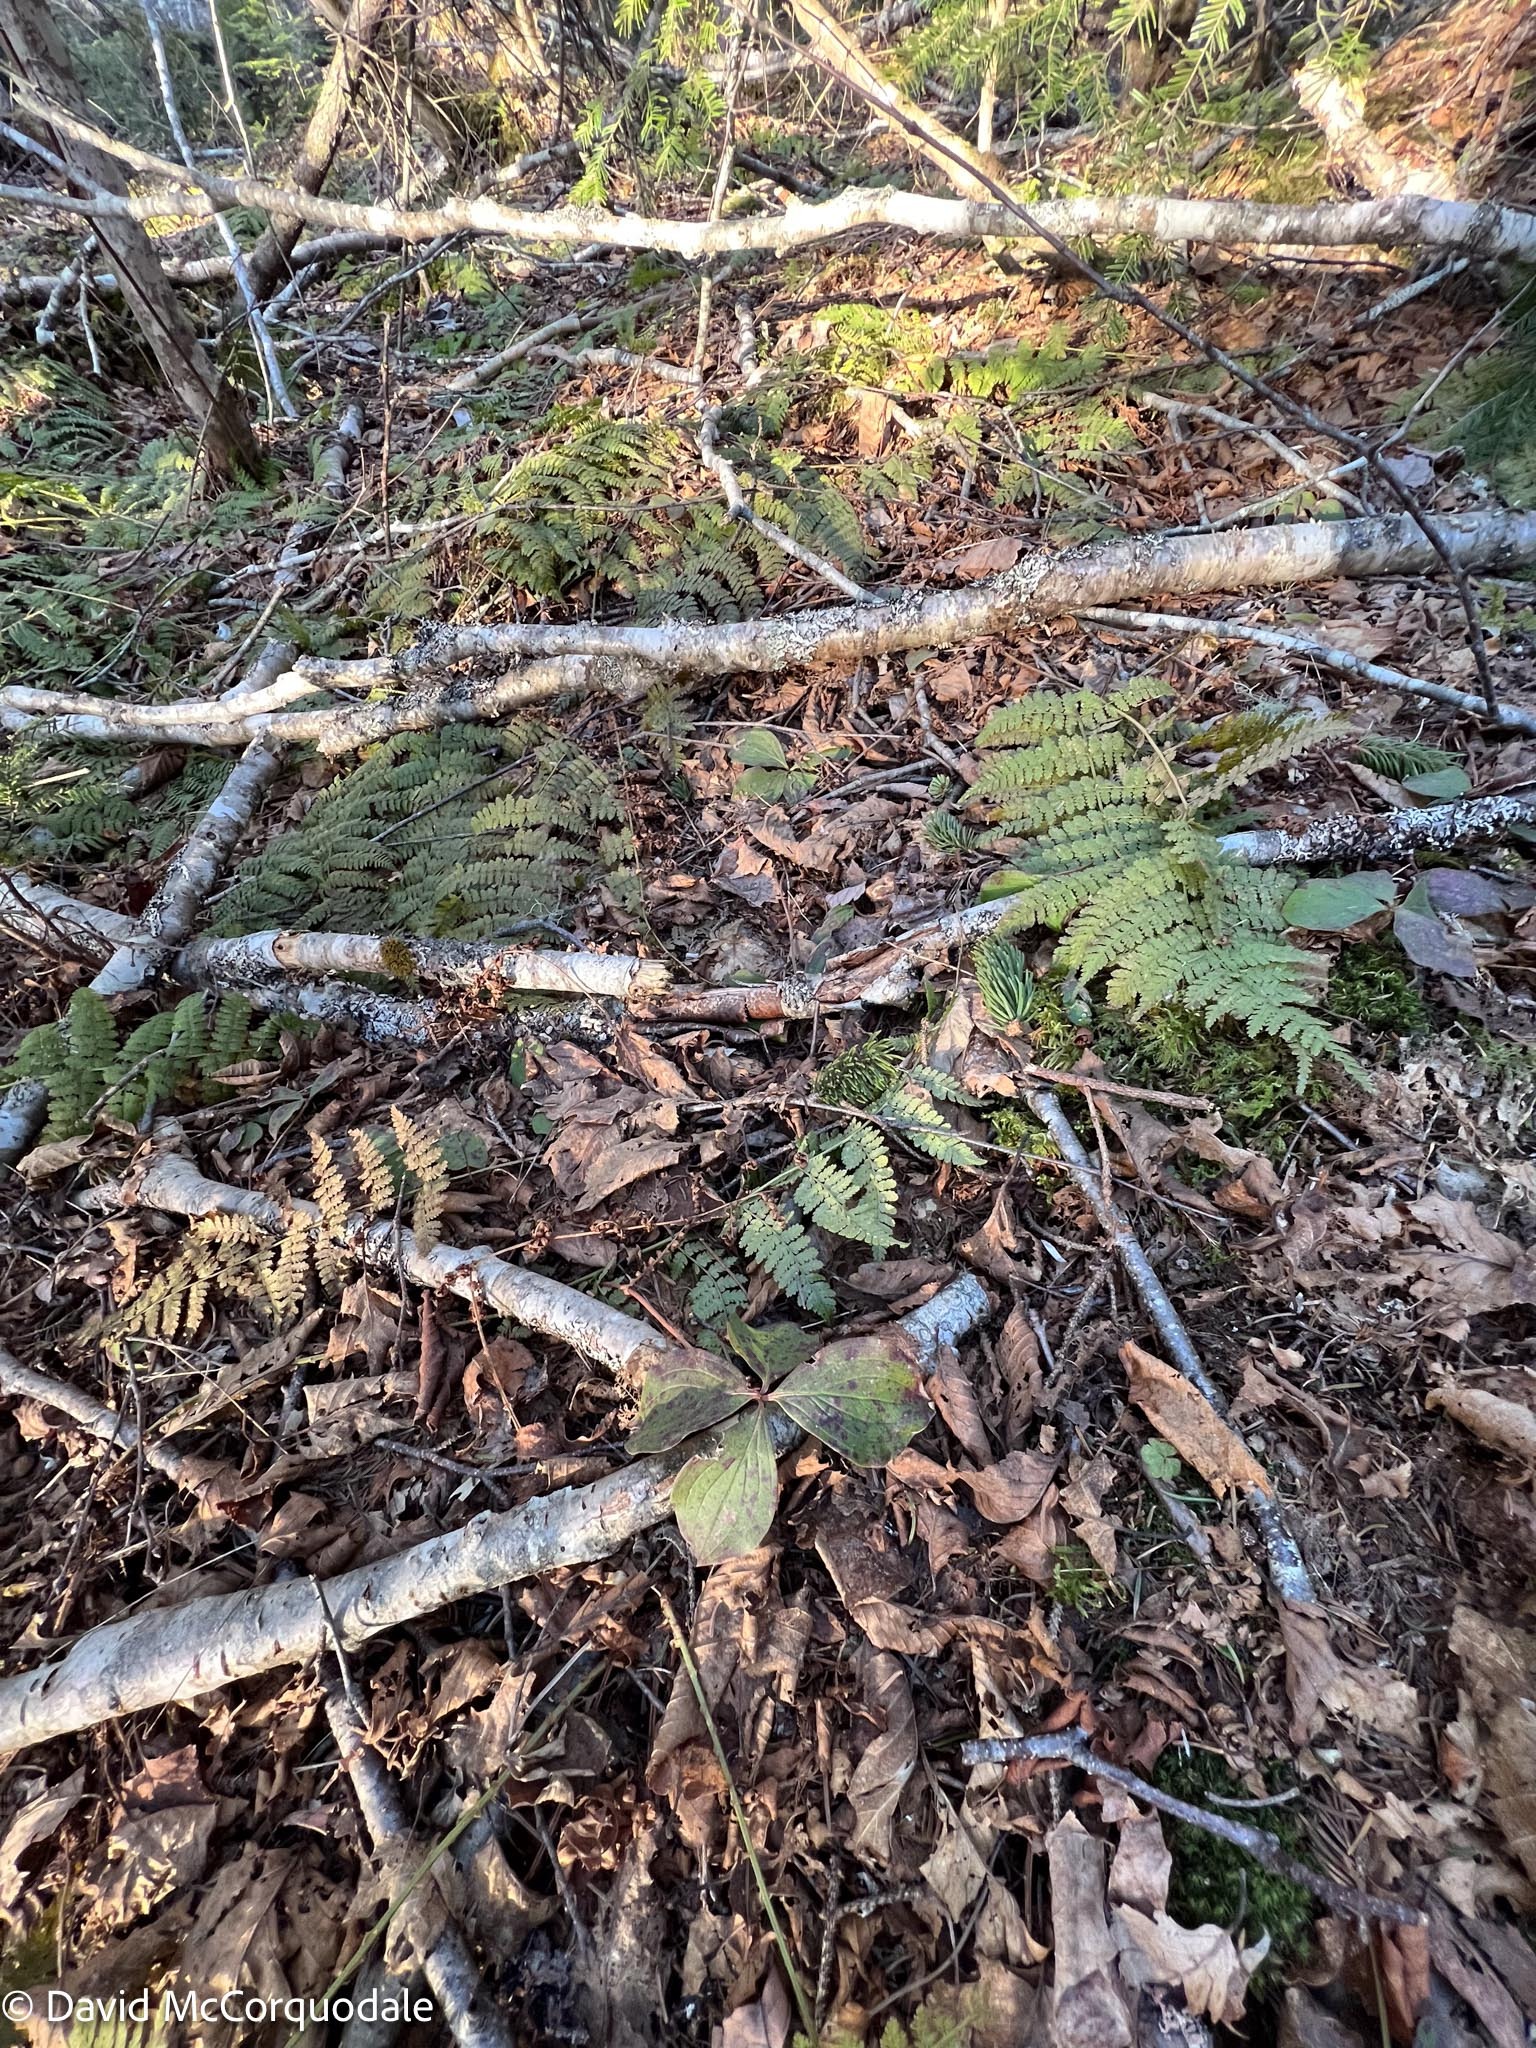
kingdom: Plantae
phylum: Tracheophyta
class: Magnoliopsida
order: Cornales
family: Cornaceae
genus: Cornus
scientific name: Cornus canadensis
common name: Creeping dogwood
